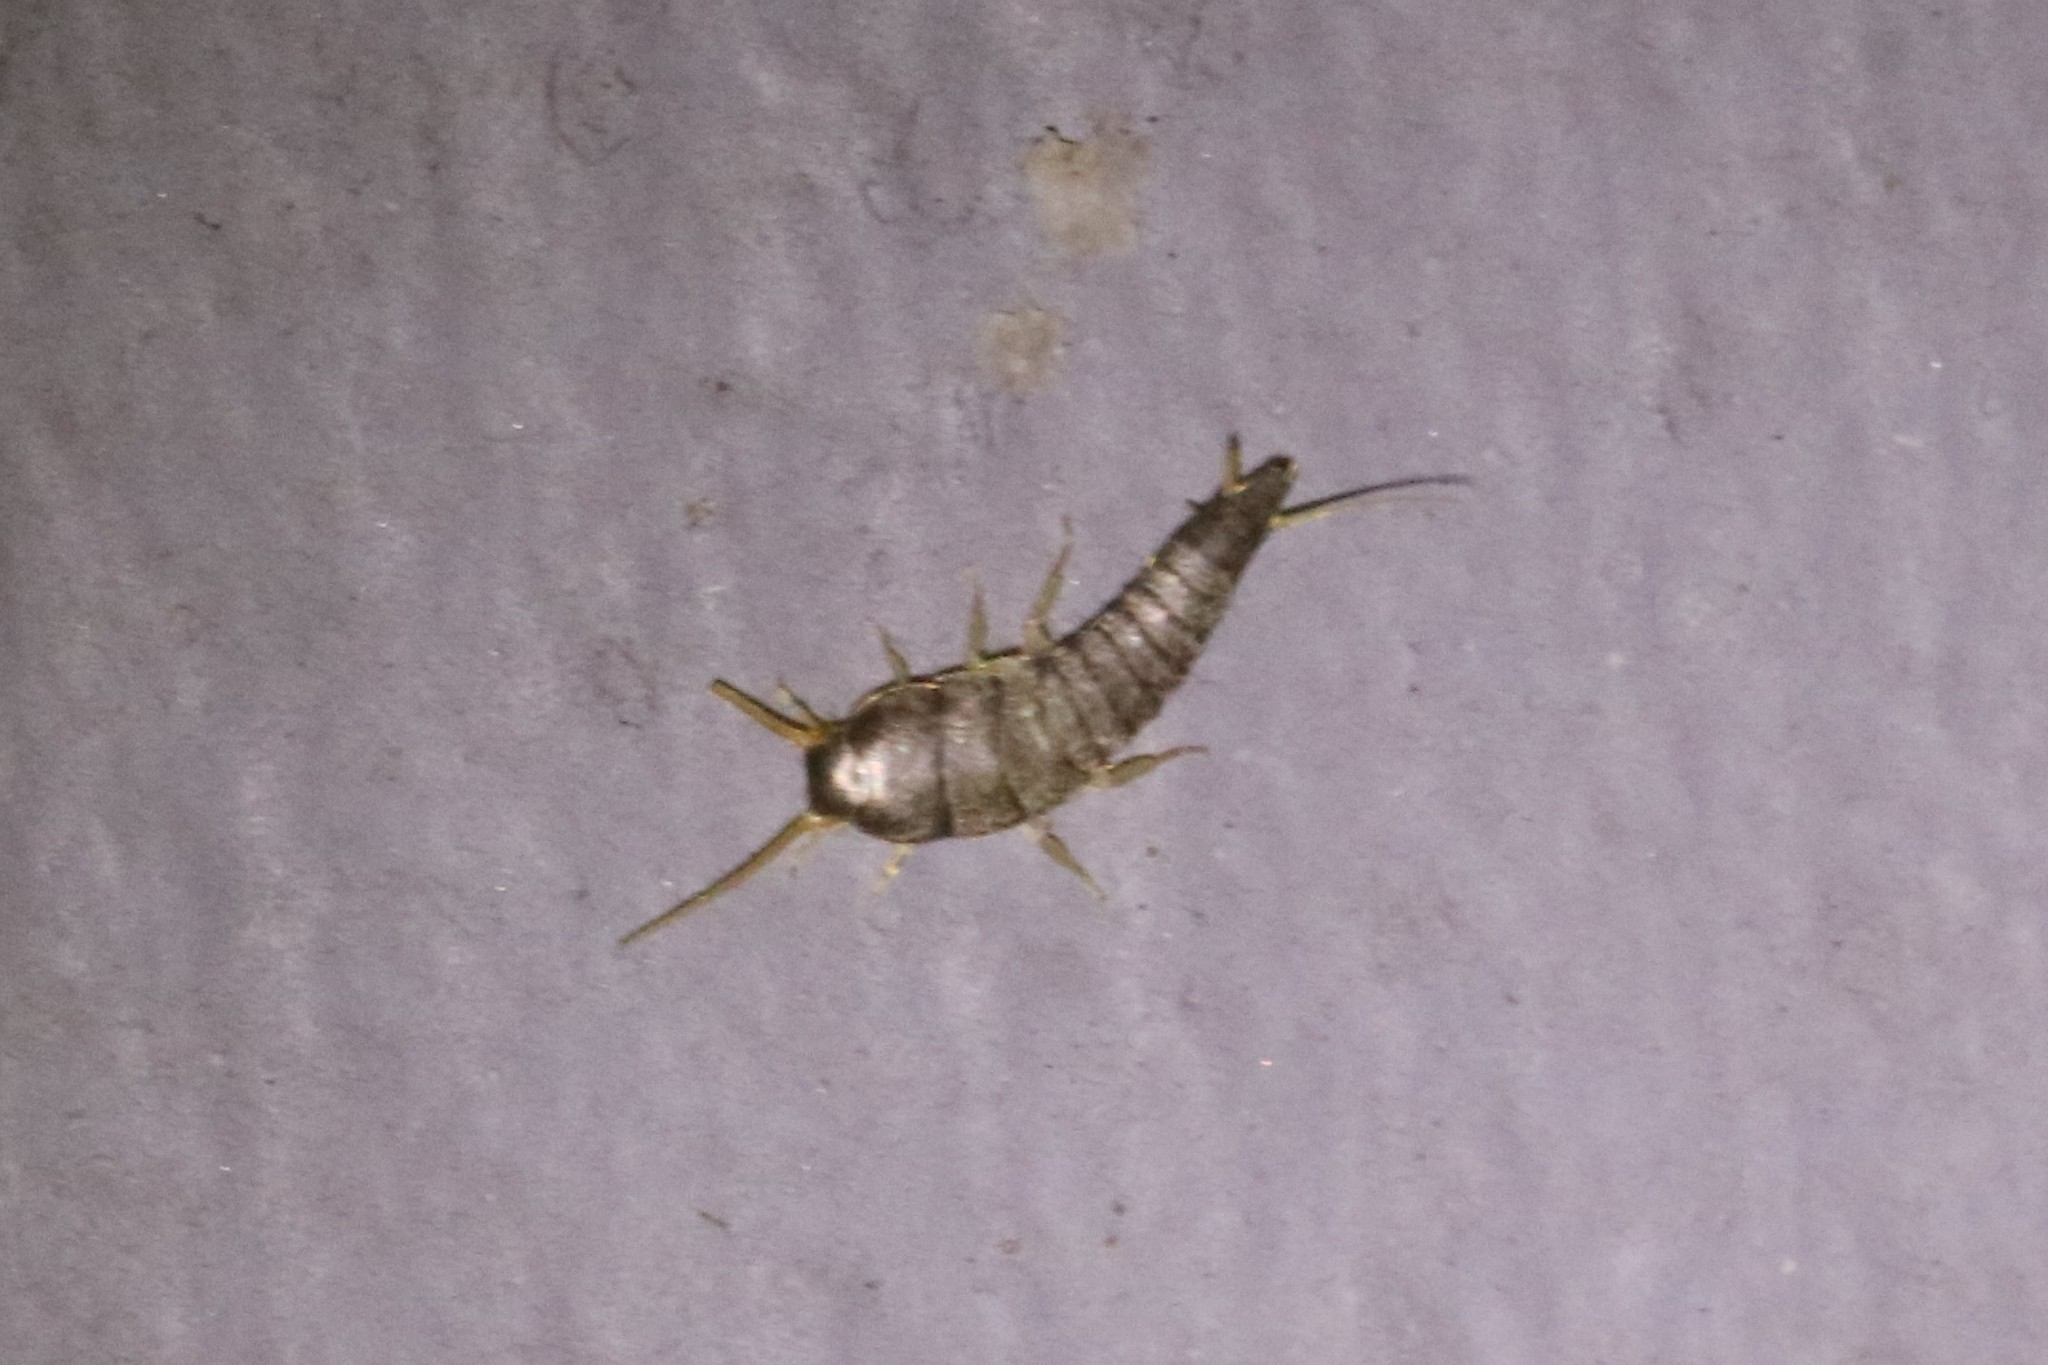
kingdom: Animalia
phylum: Arthropoda
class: Insecta
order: Zygentoma
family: Lepismatidae
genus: Lepisma
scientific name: Lepisma saccharinum
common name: Silverfish
